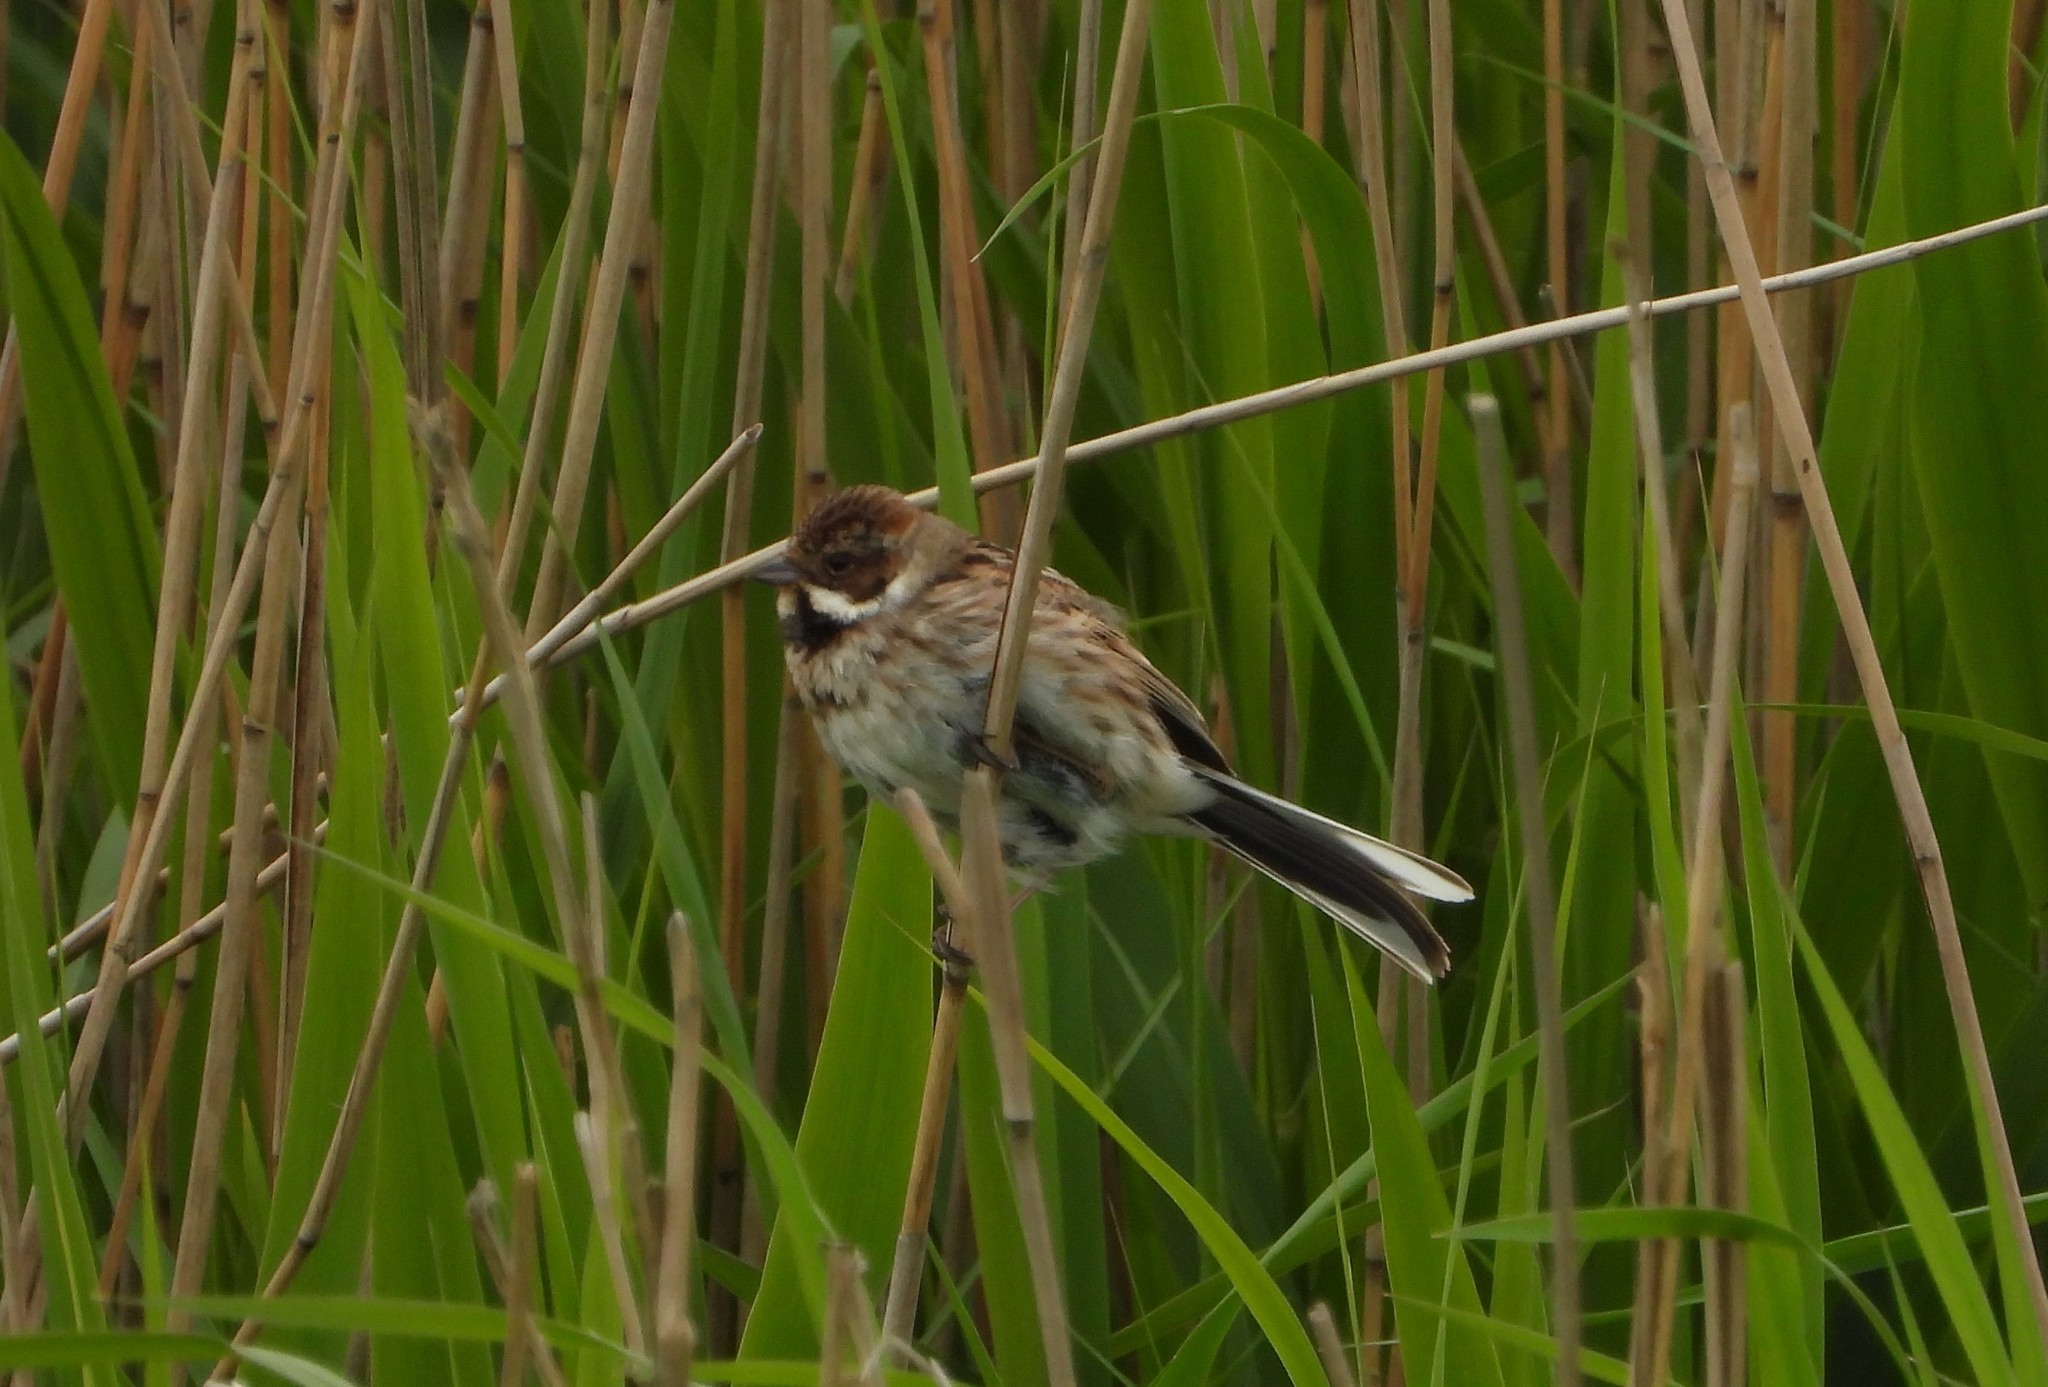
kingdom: Animalia
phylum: Chordata
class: Aves
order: Passeriformes
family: Emberizidae
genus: Emberiza
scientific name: Emberiza schoeniclus
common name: Reed bunting
